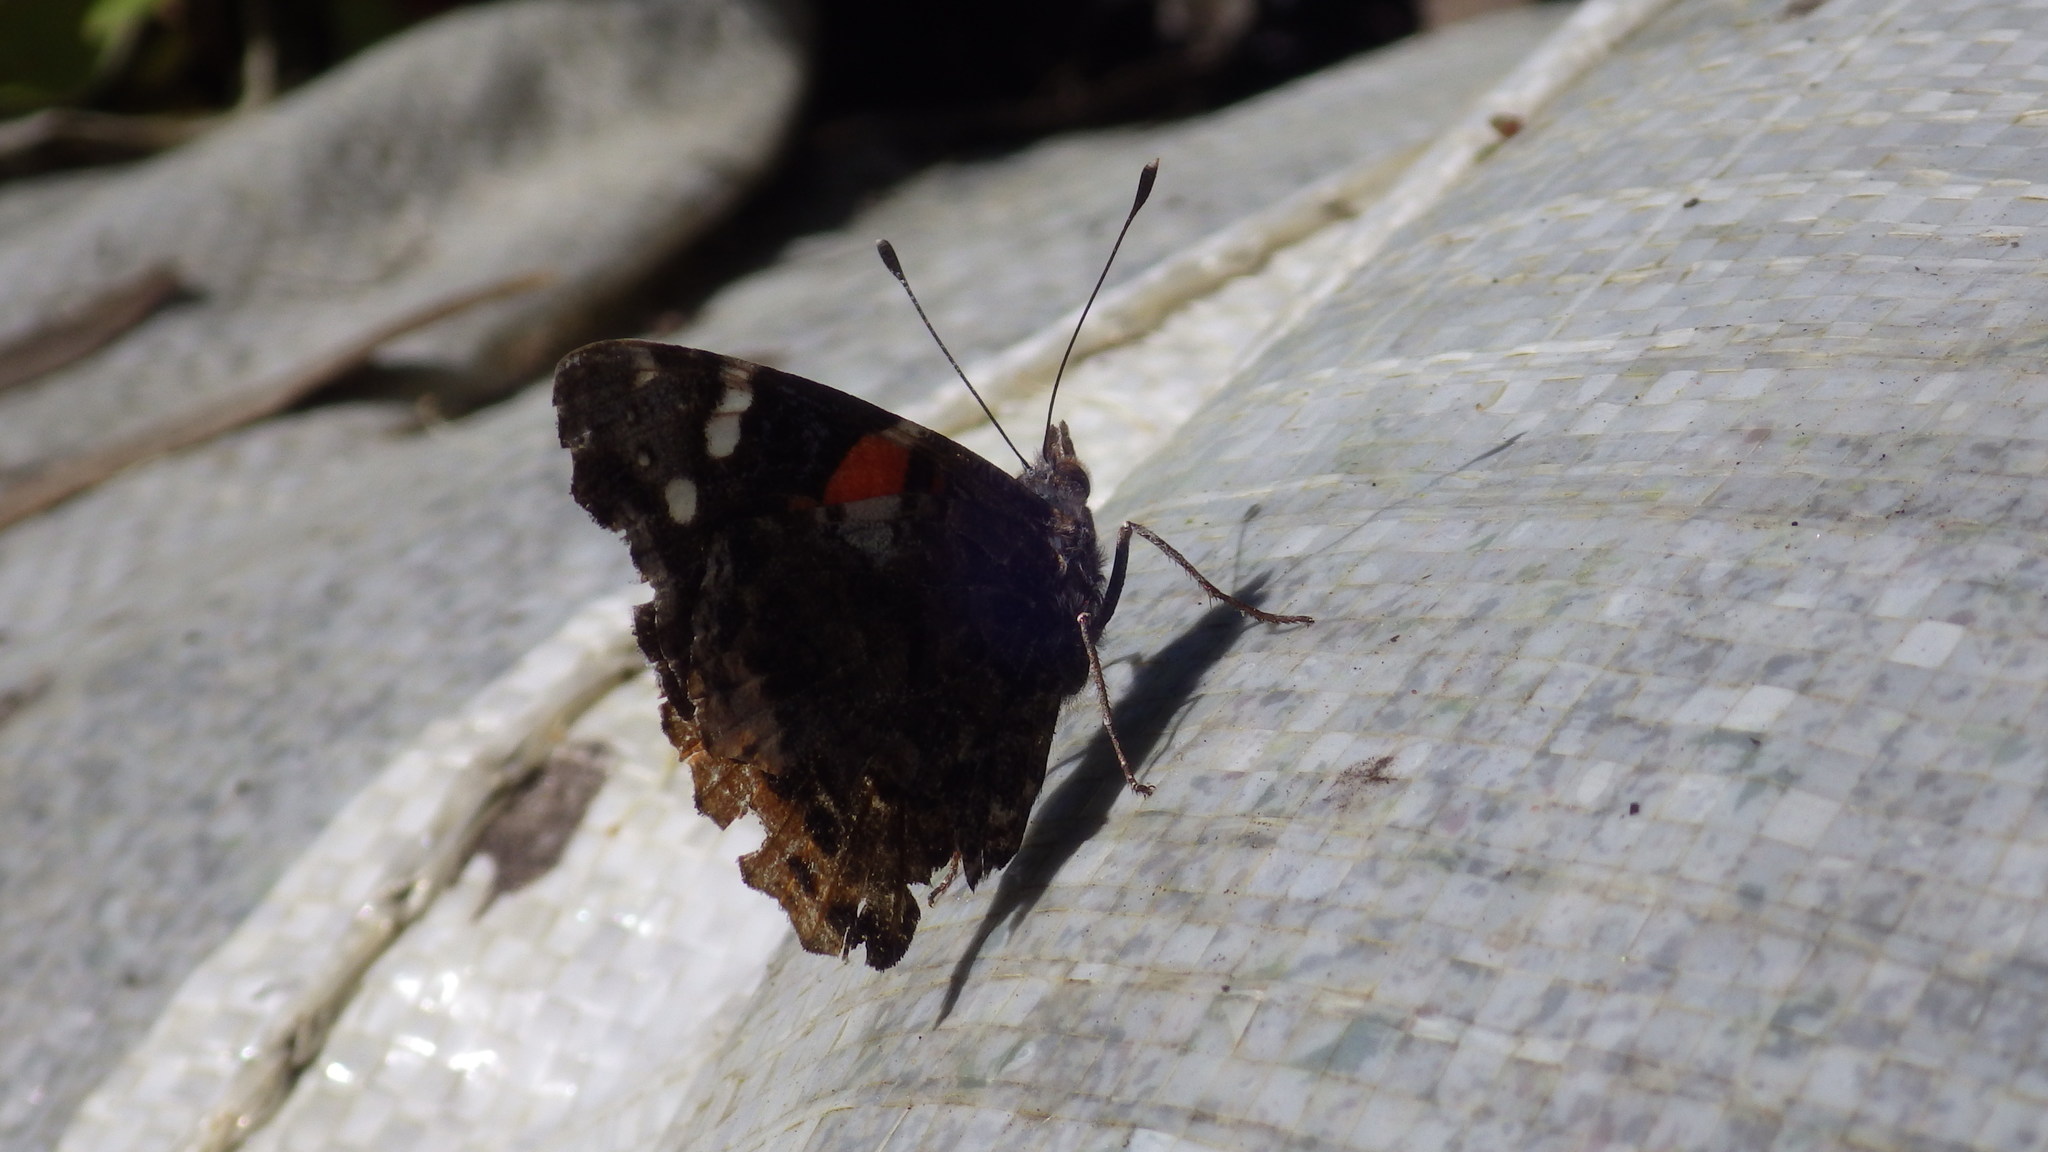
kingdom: Animalia
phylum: Arthropoda
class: Insecta
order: Lepidoptera
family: Nymphalidae
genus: Vanessa
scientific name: Vanessa atalanta
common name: Red admiral
